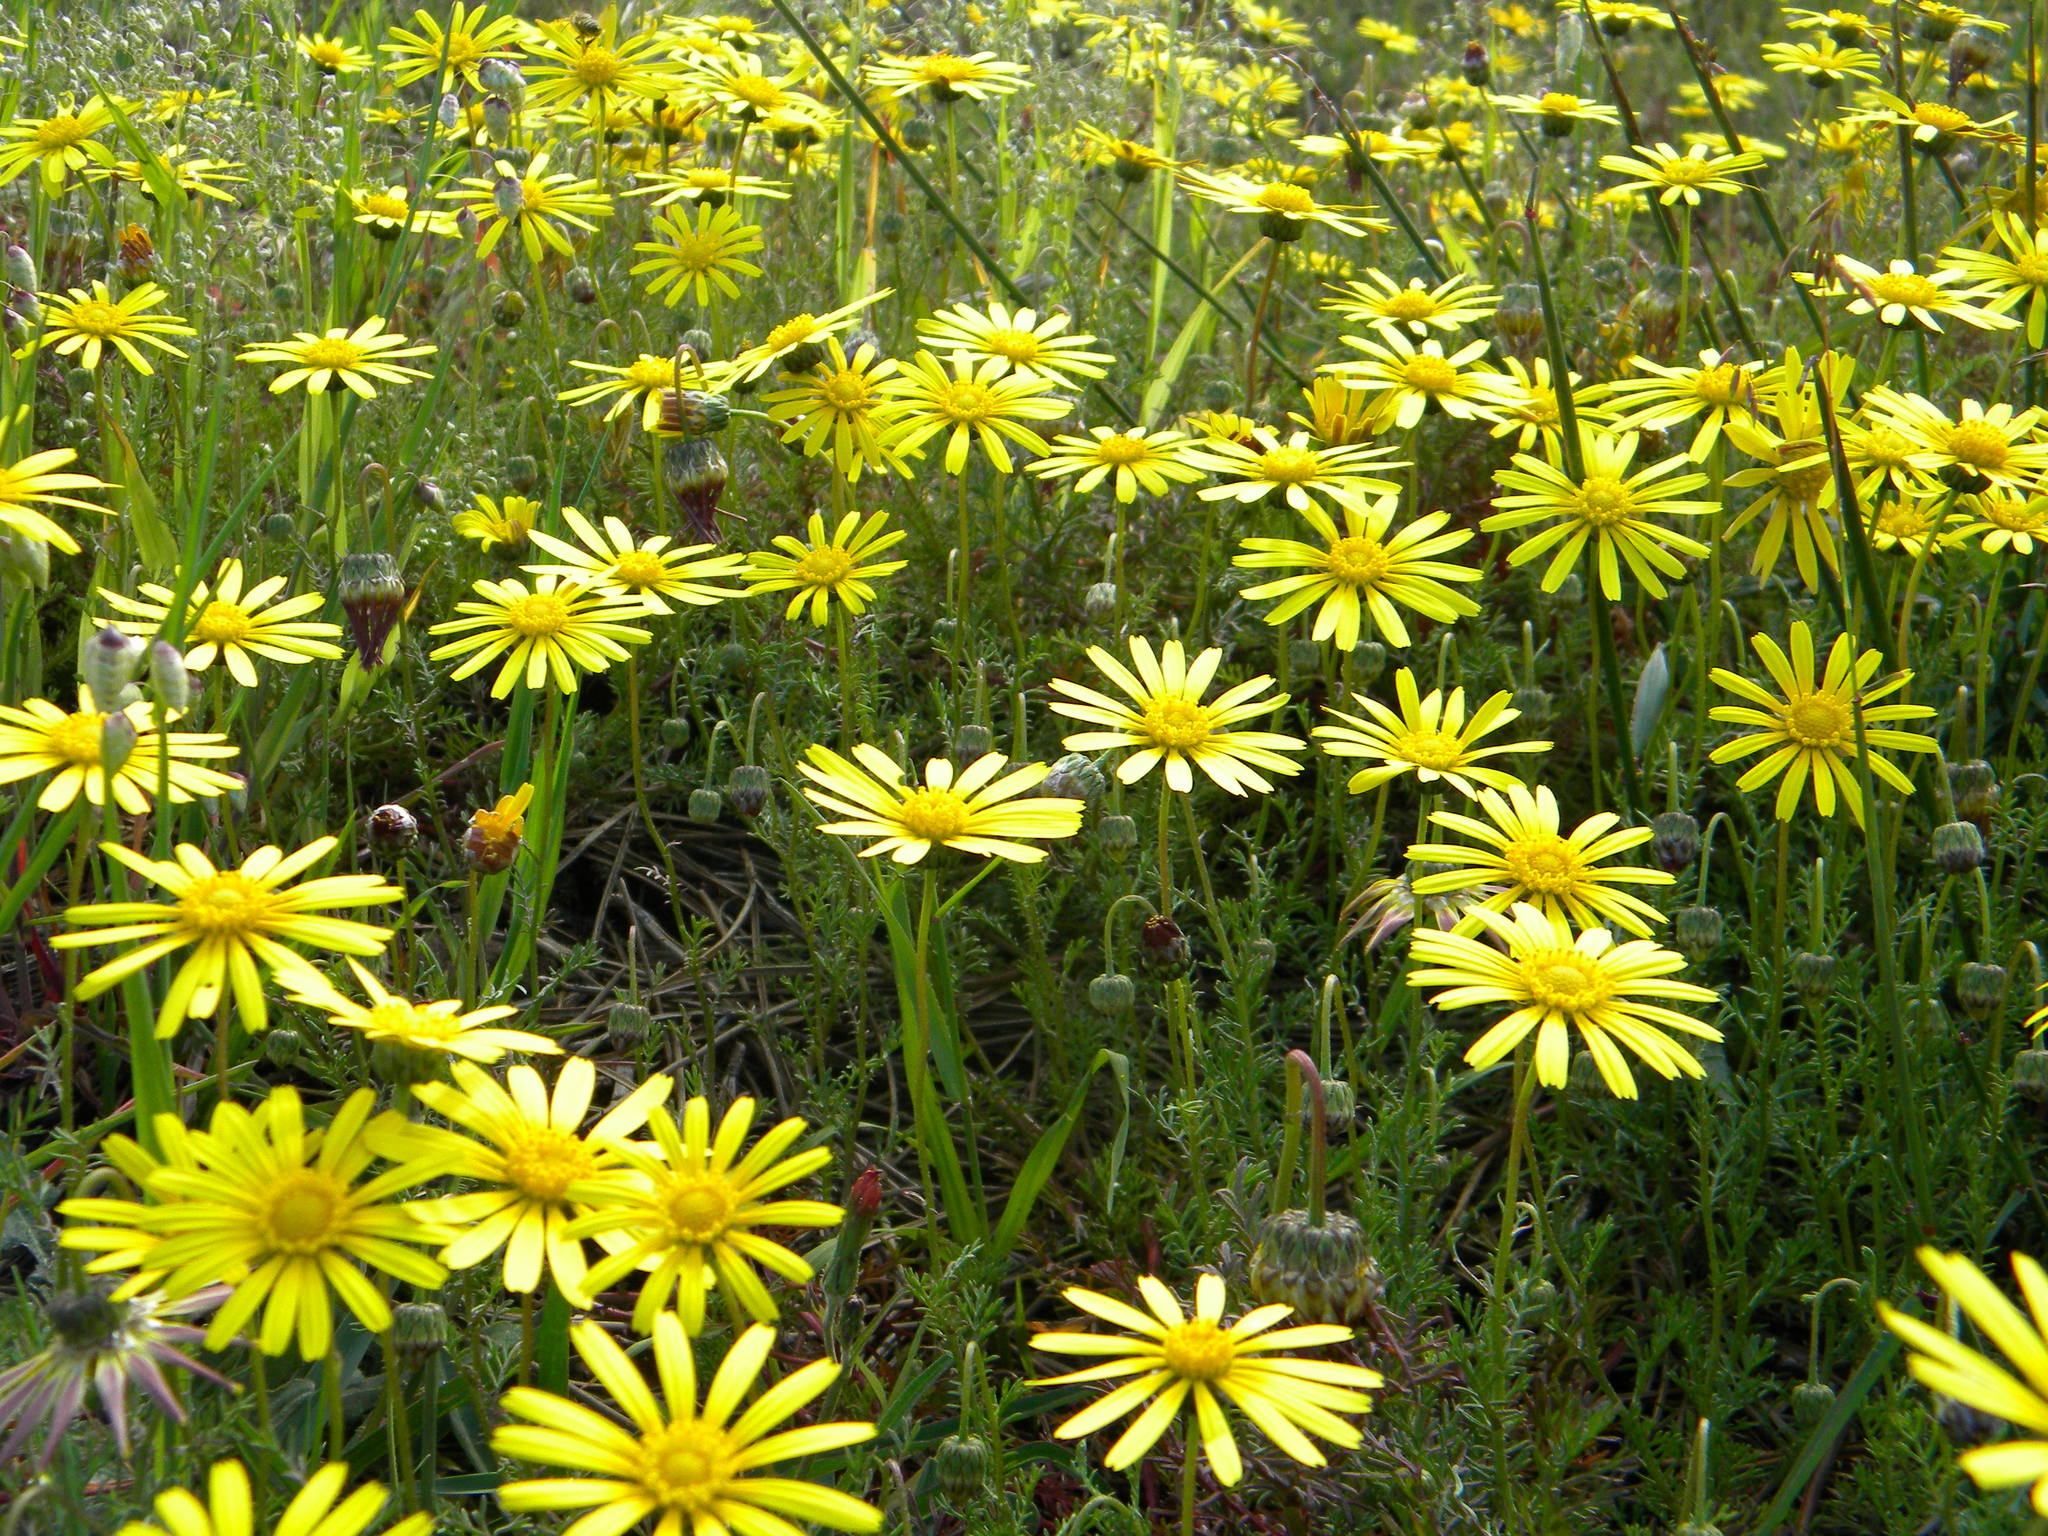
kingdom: Plantae
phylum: Tracheophyta
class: Magnoliopsida
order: Asterales
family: Asteraceae
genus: Ursinia
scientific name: Ursinia anthemoides
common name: Ursinia
